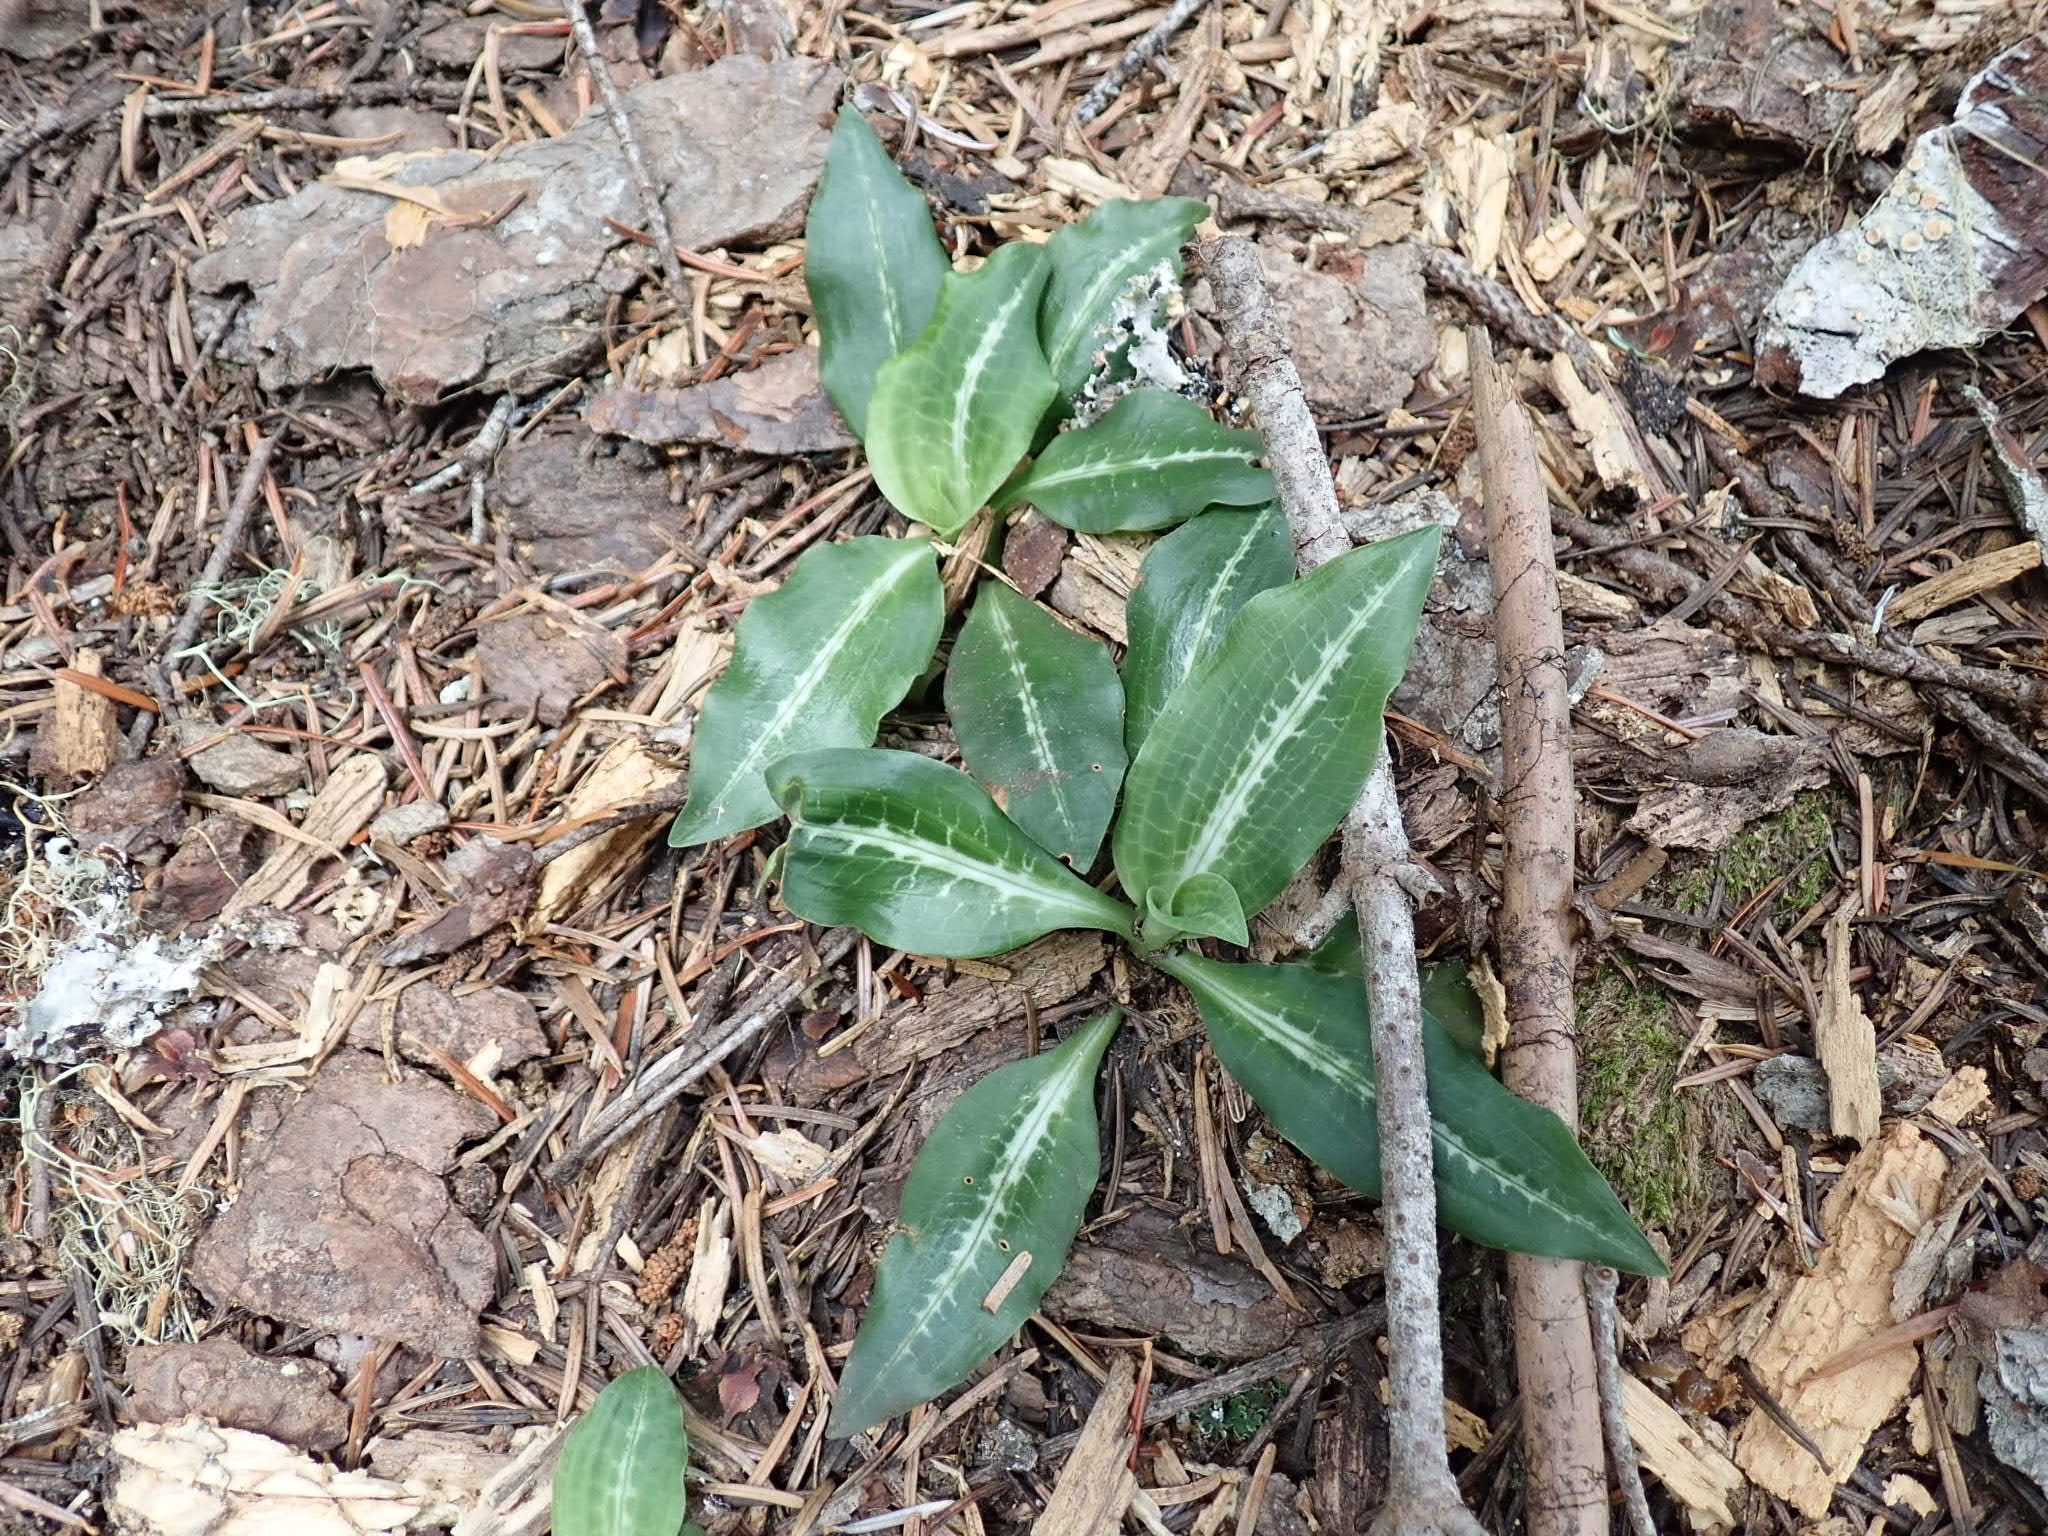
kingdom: Plantae
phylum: Tracheophyta
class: Liliopsida
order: Asparagales
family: Orchidaceae
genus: Goodyera
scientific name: Goodyera oblongifolia
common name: Giant rattlesnake-plantain
